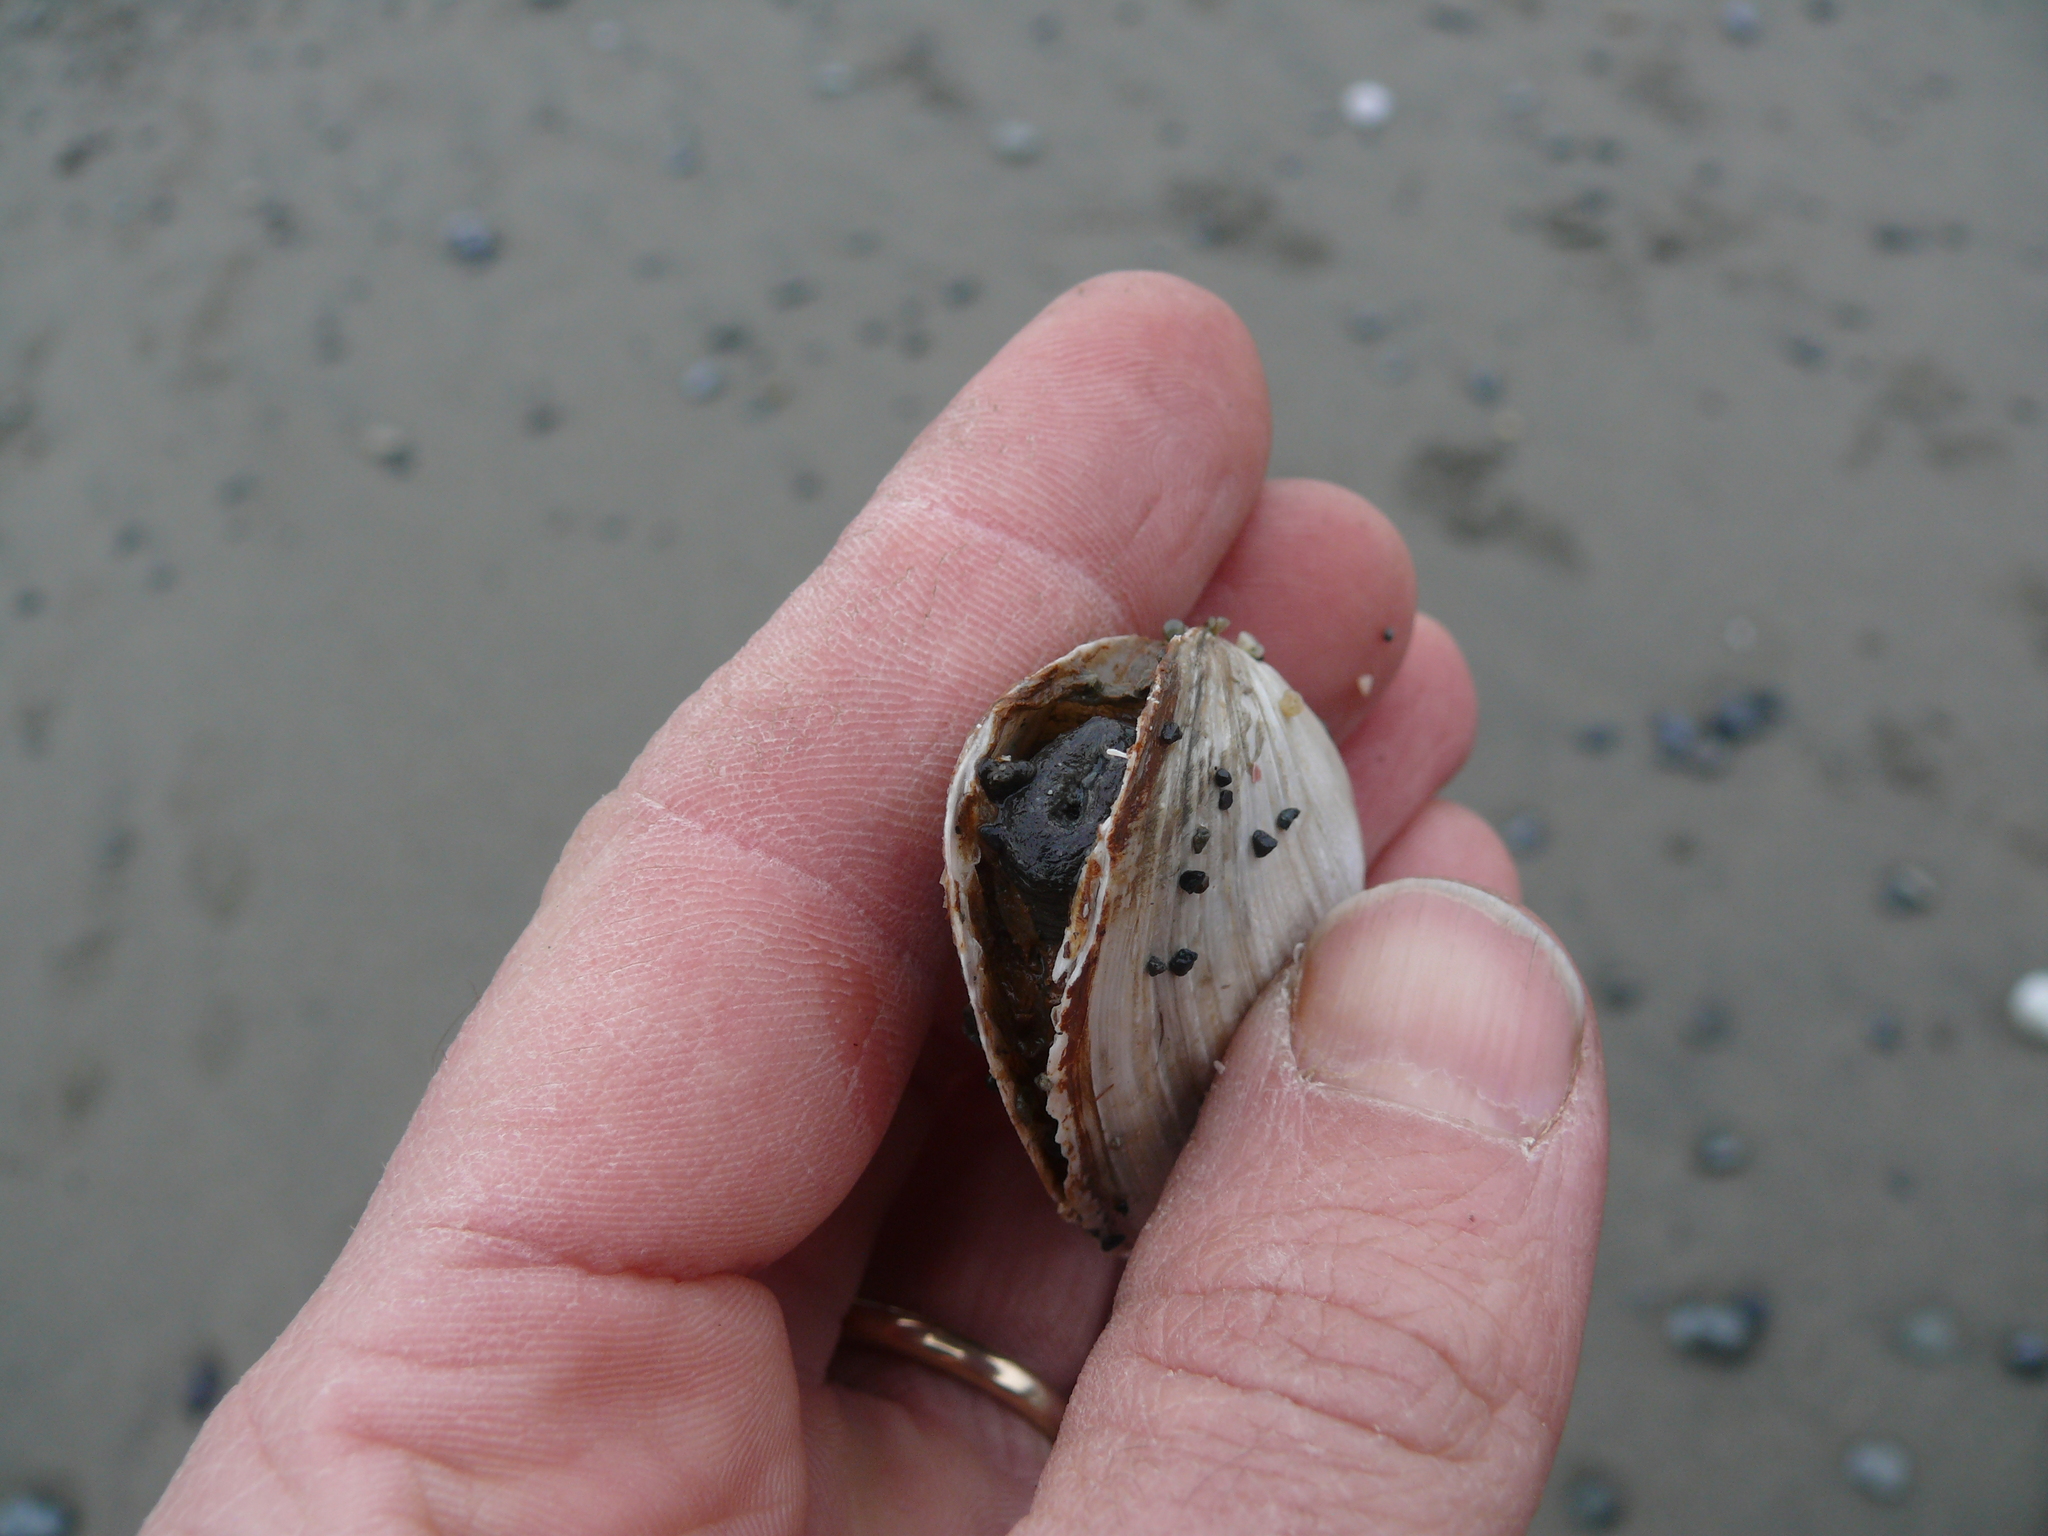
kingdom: Animalia
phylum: Mollusca
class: Bivalvia
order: Myida
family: Myidae
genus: Mya
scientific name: Mya arenaria
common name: Soft-shelled clam
